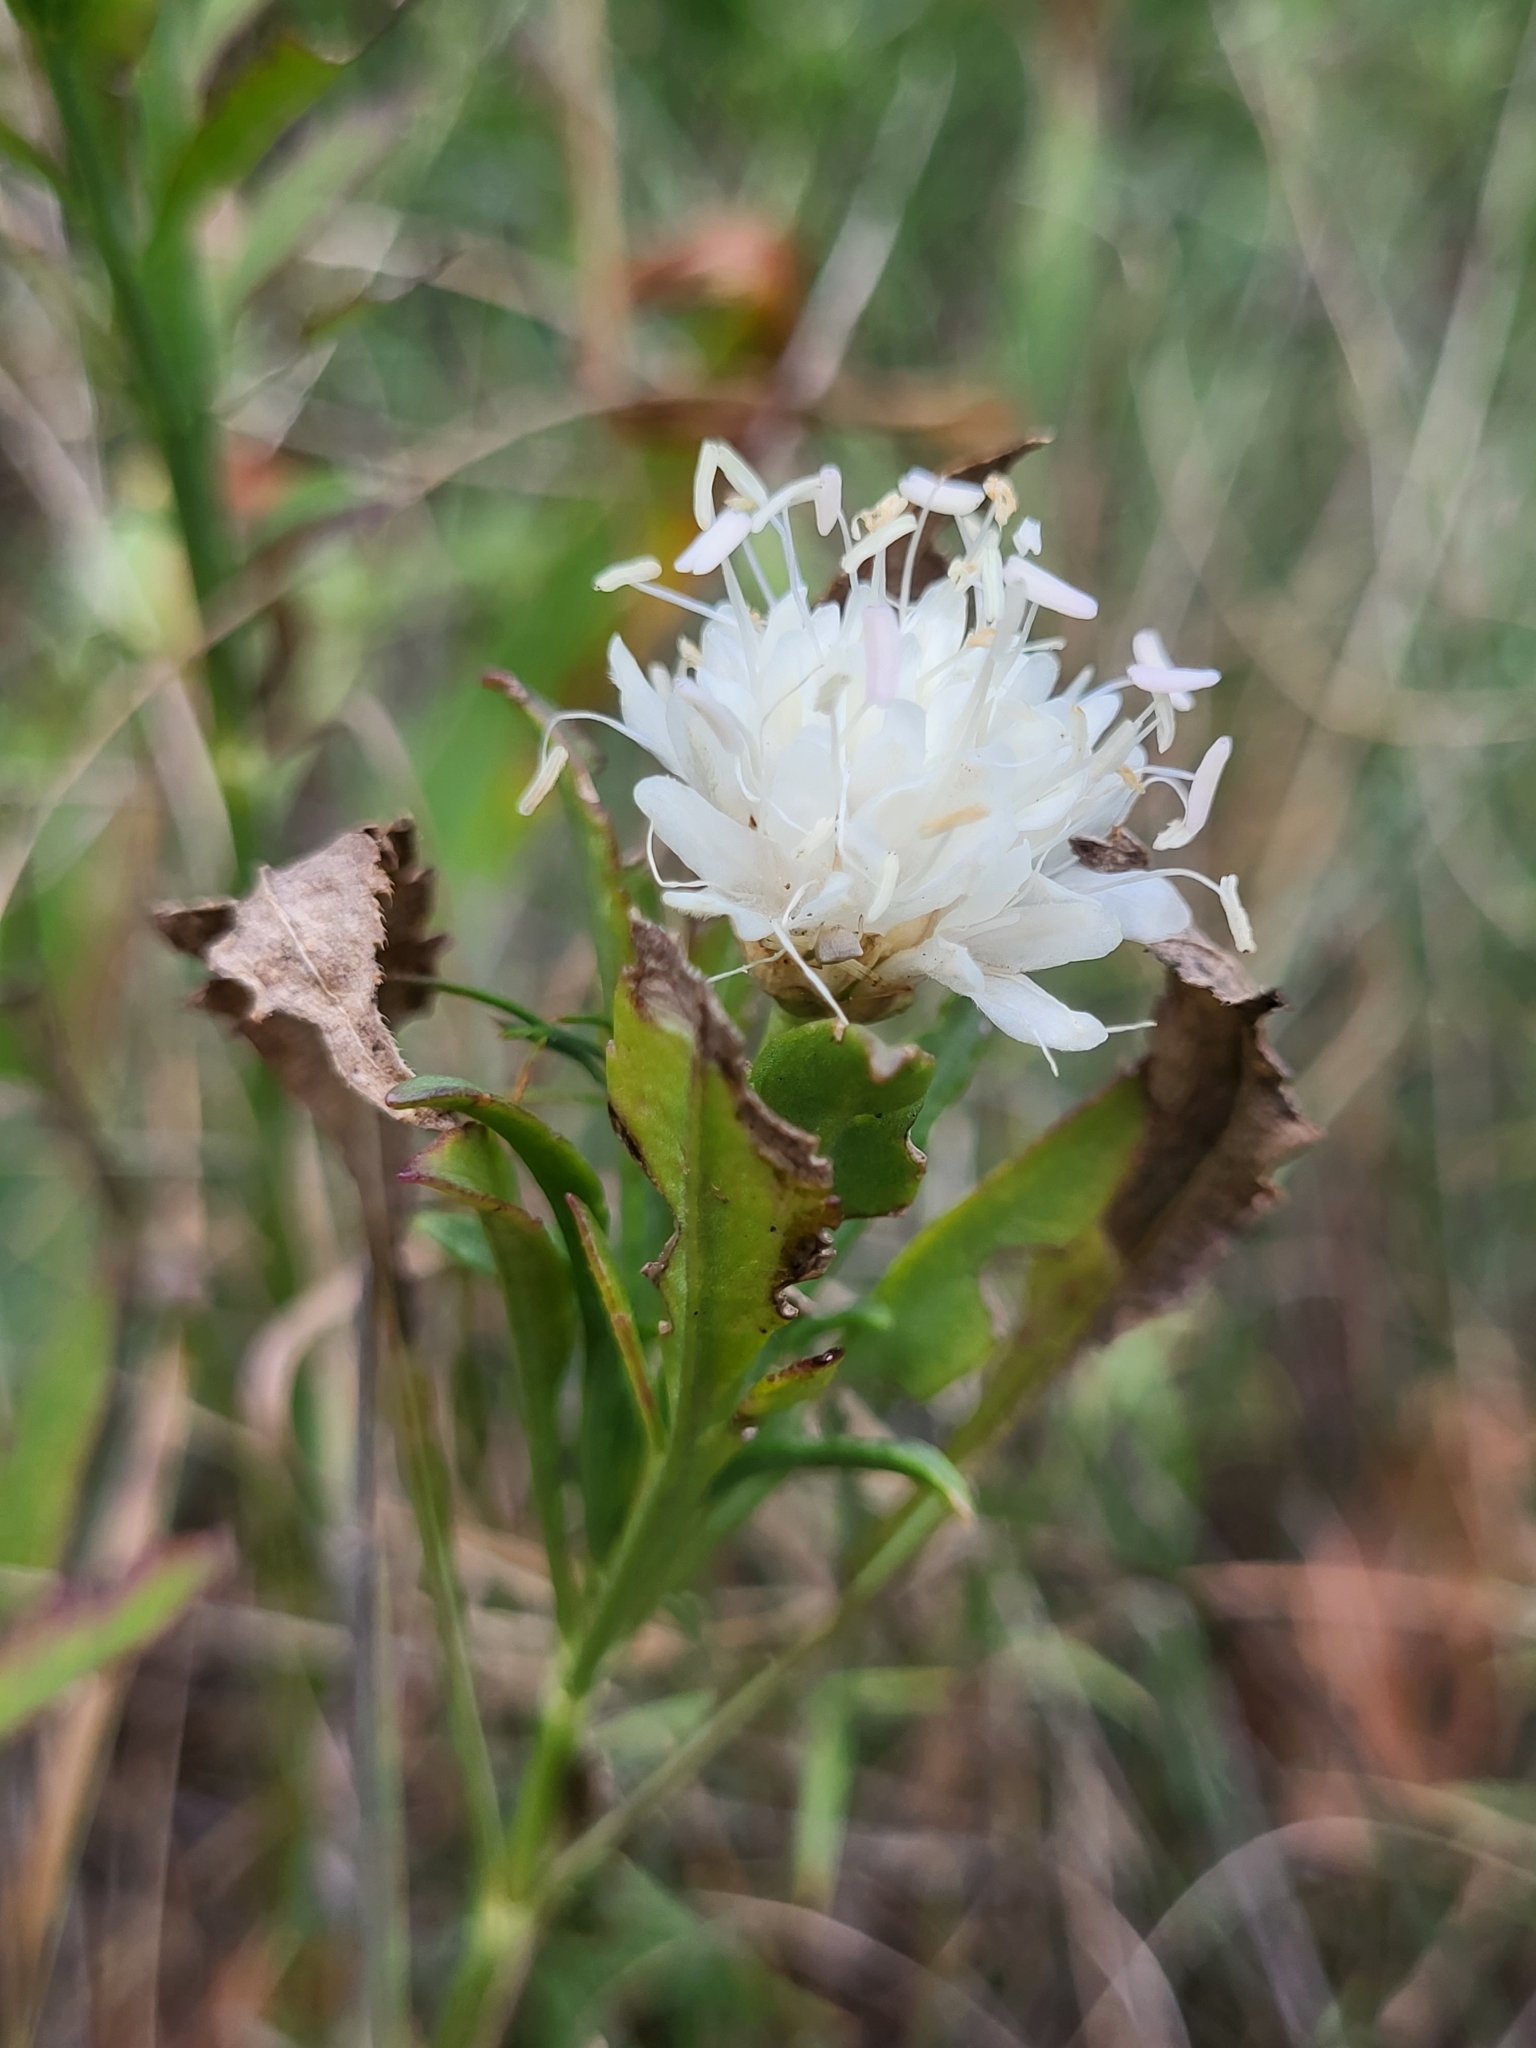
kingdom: Plantae
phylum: Tracheophyta
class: Magnoliopsida
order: Dipsacales
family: Caprifoliaceae
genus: Cephalaria
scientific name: Cephalaria leucantha
